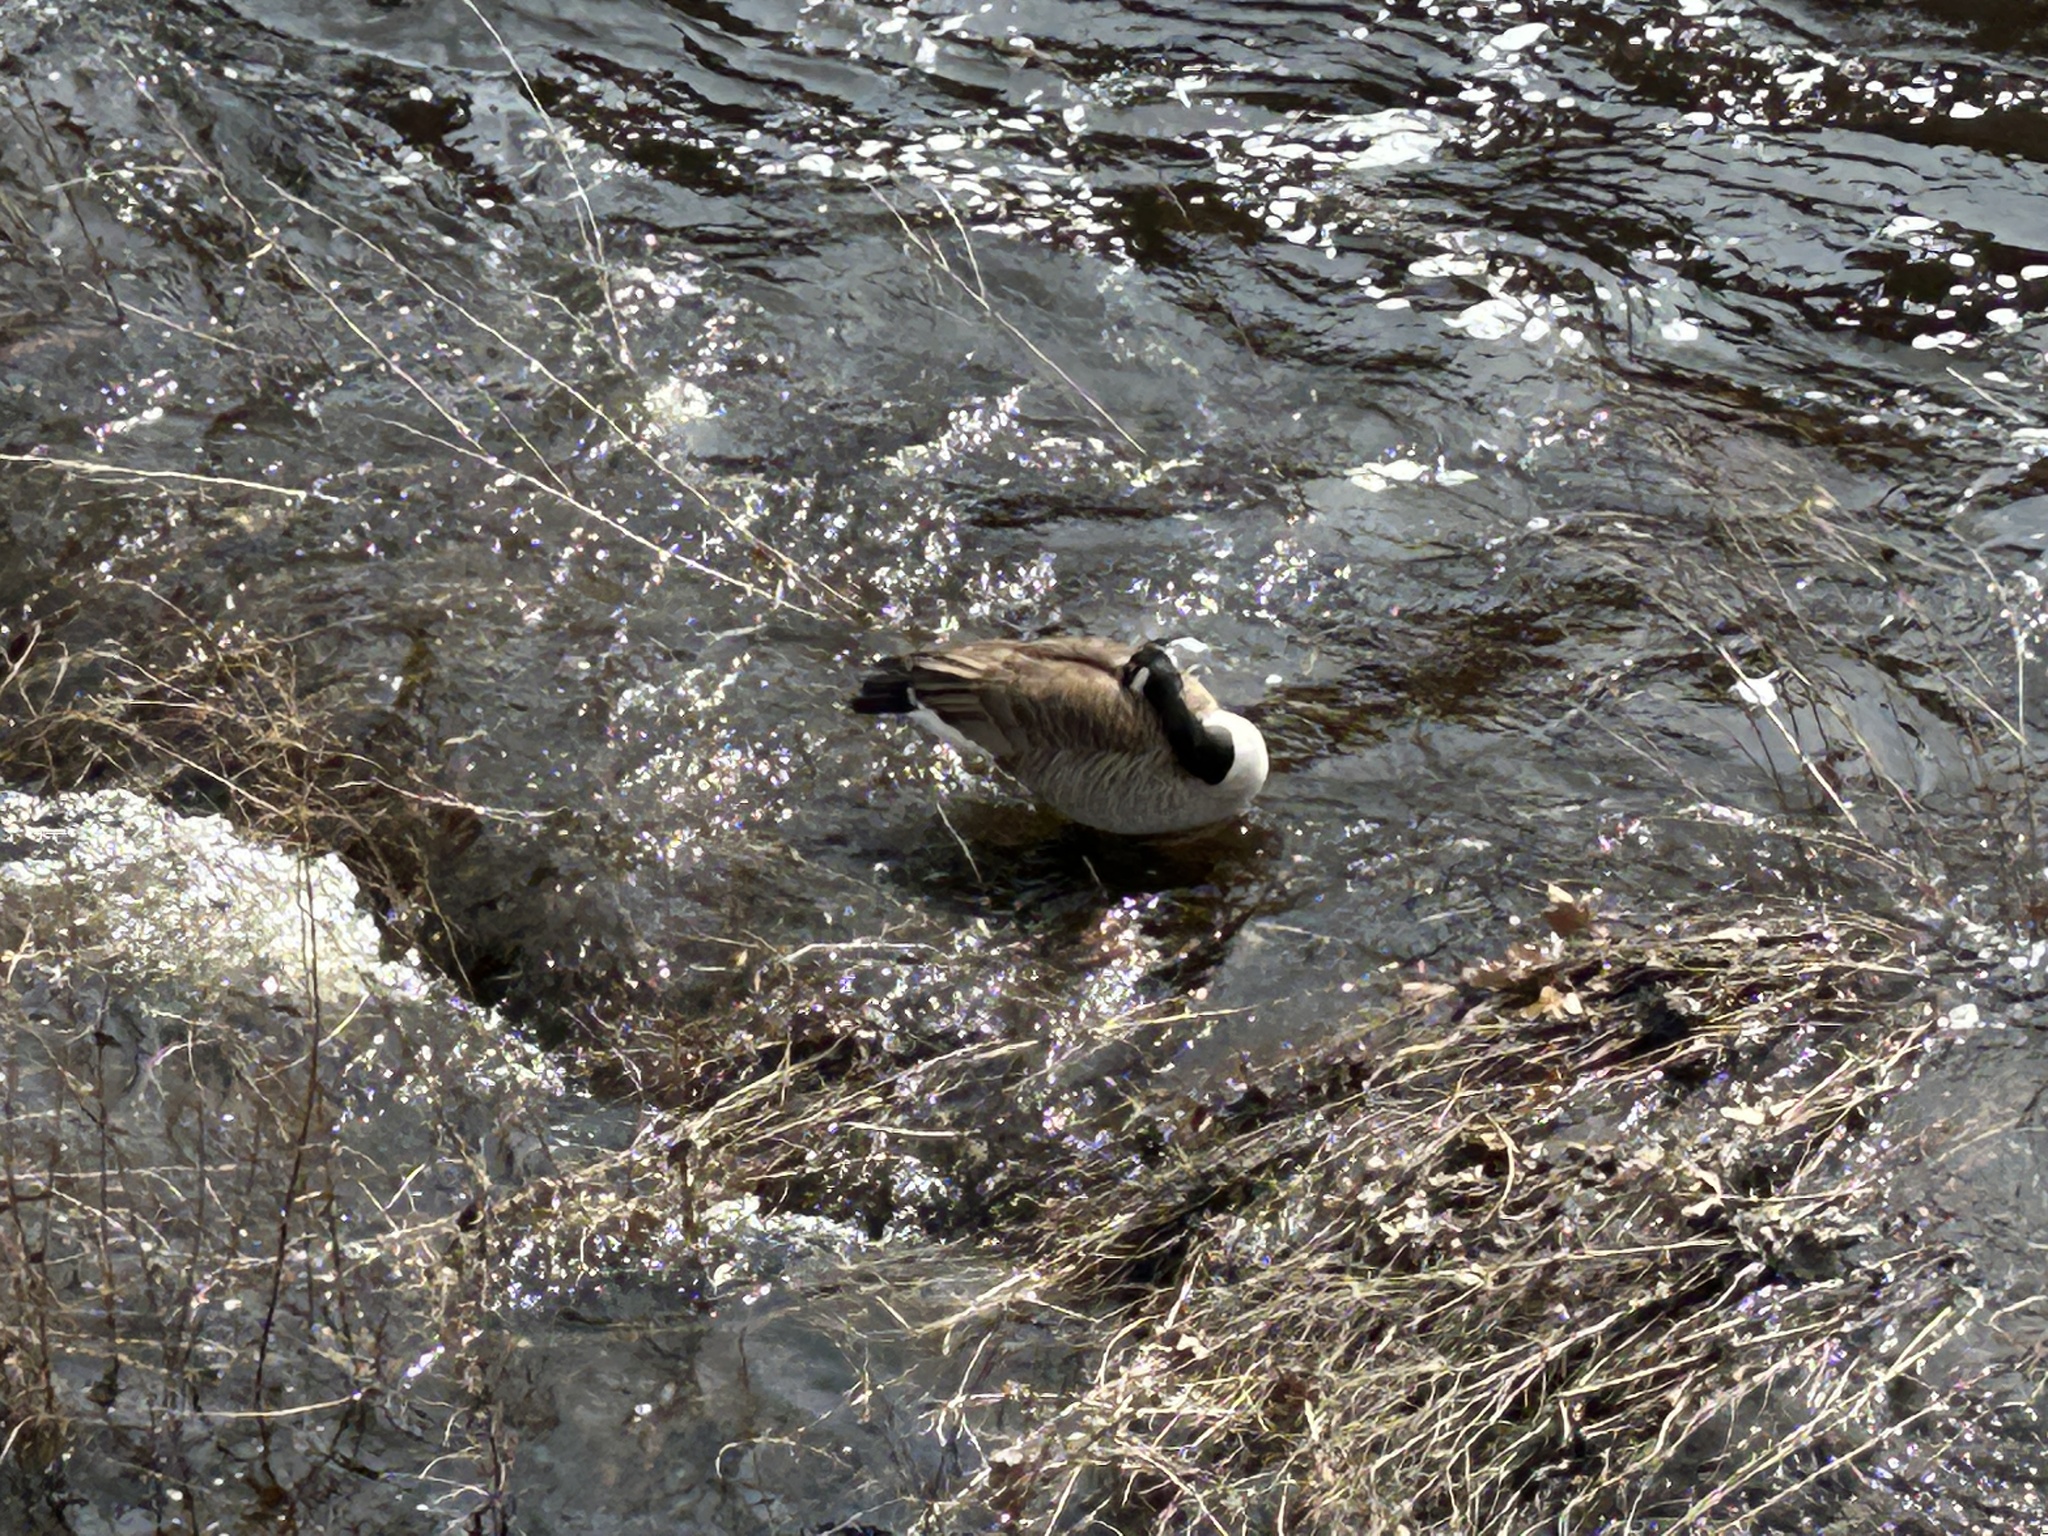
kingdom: Animalia
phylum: Chordata
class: Aves
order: Anseriformes
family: Anatidae
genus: Branta
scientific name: Branta canadensis
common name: Canada goose
